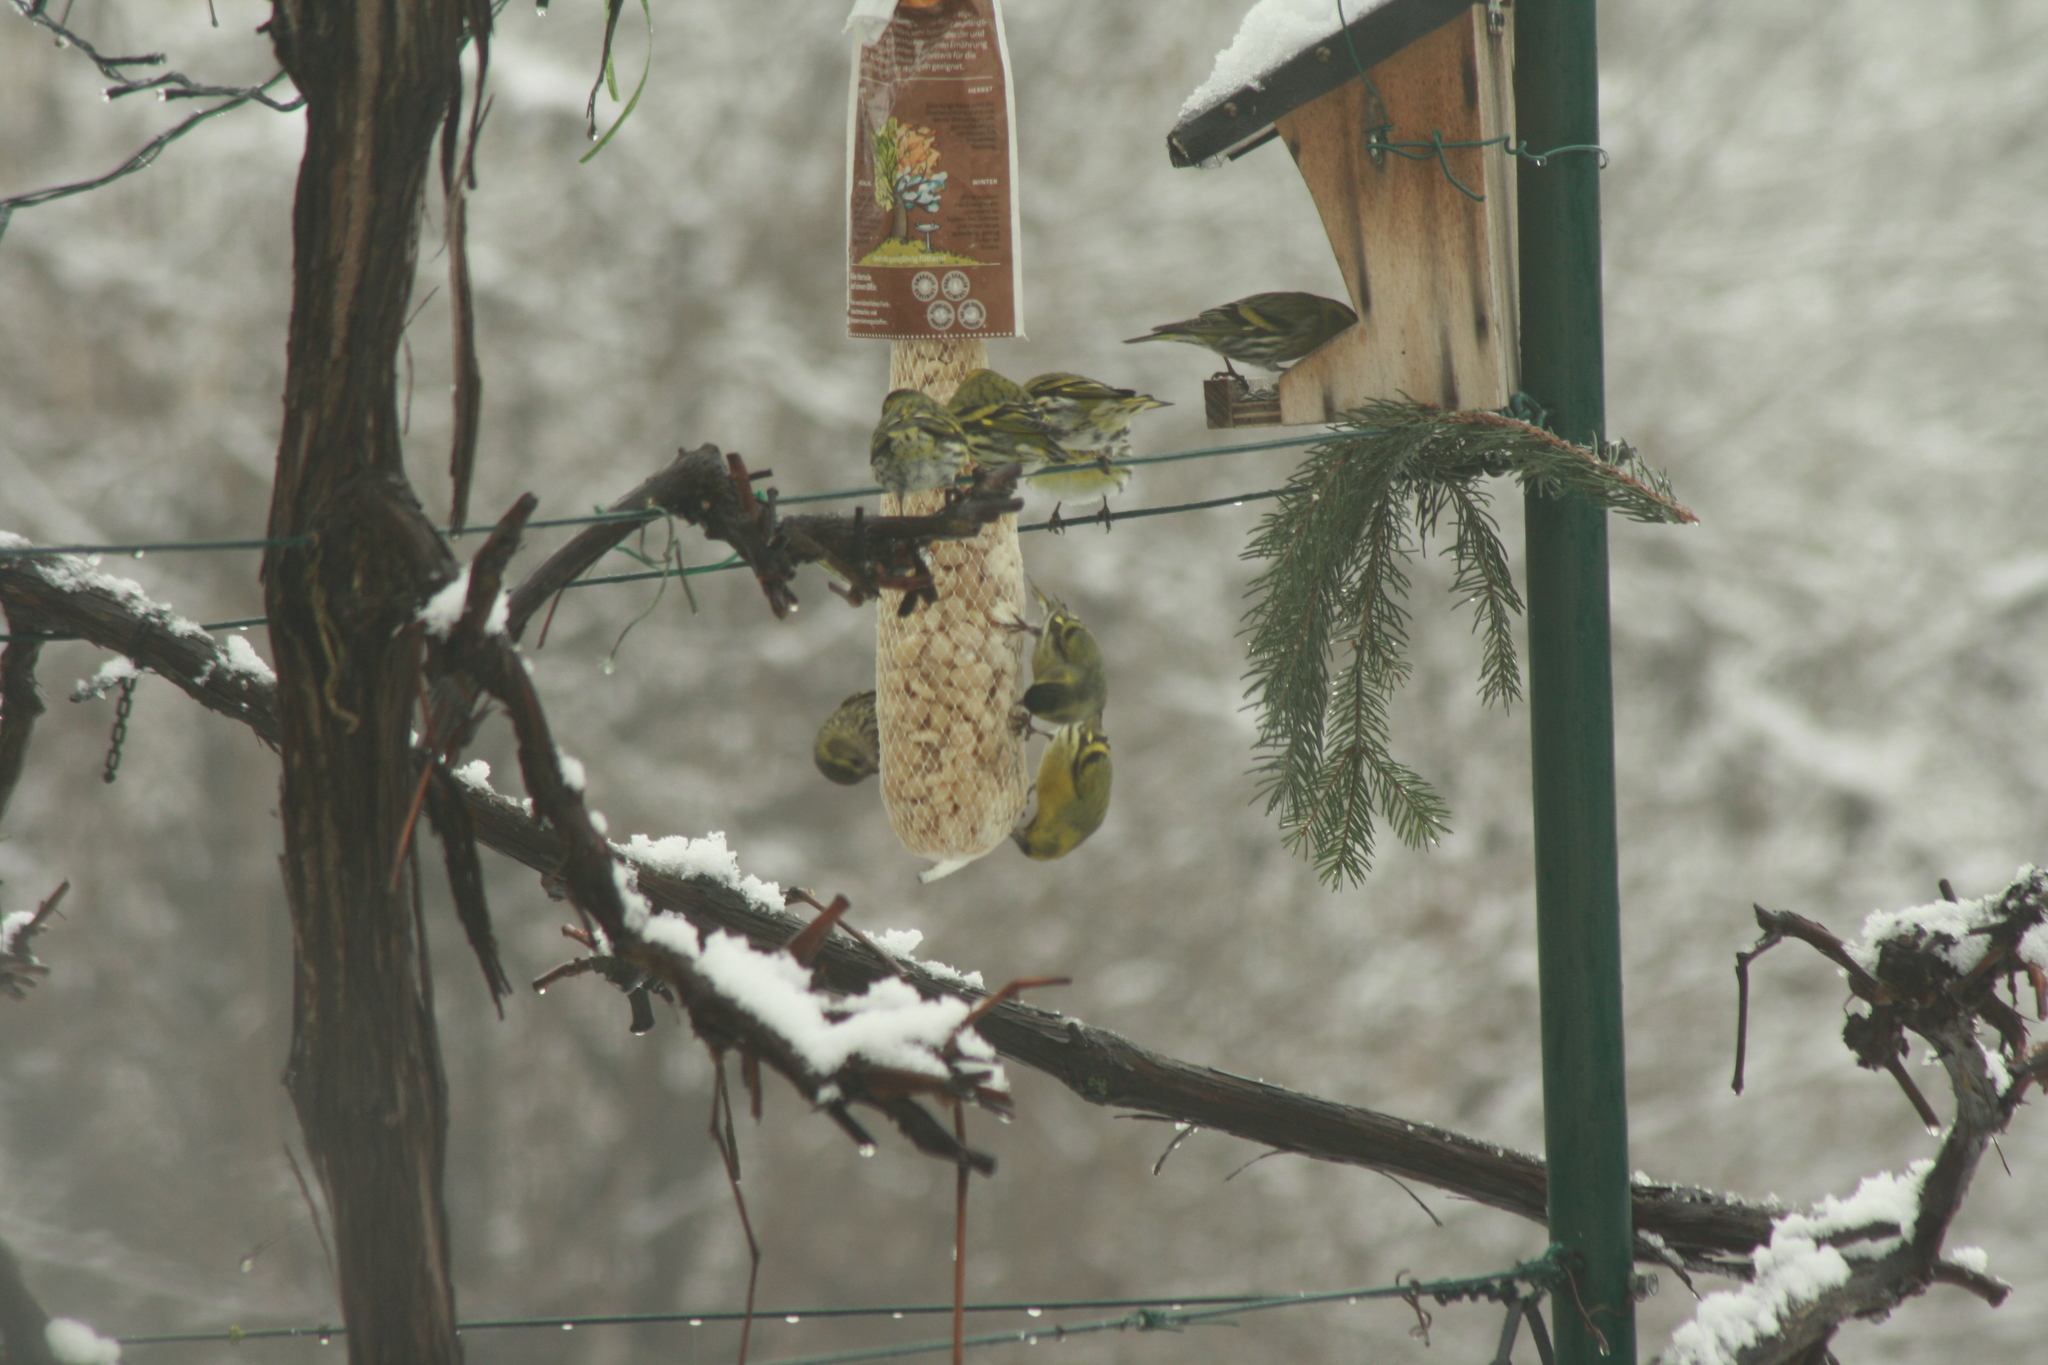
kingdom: Animalia
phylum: Chordata
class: Aves
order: Passeriformes
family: Fringillidae
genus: Spinus
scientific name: Spinus spinus
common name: Eurasian siskin
